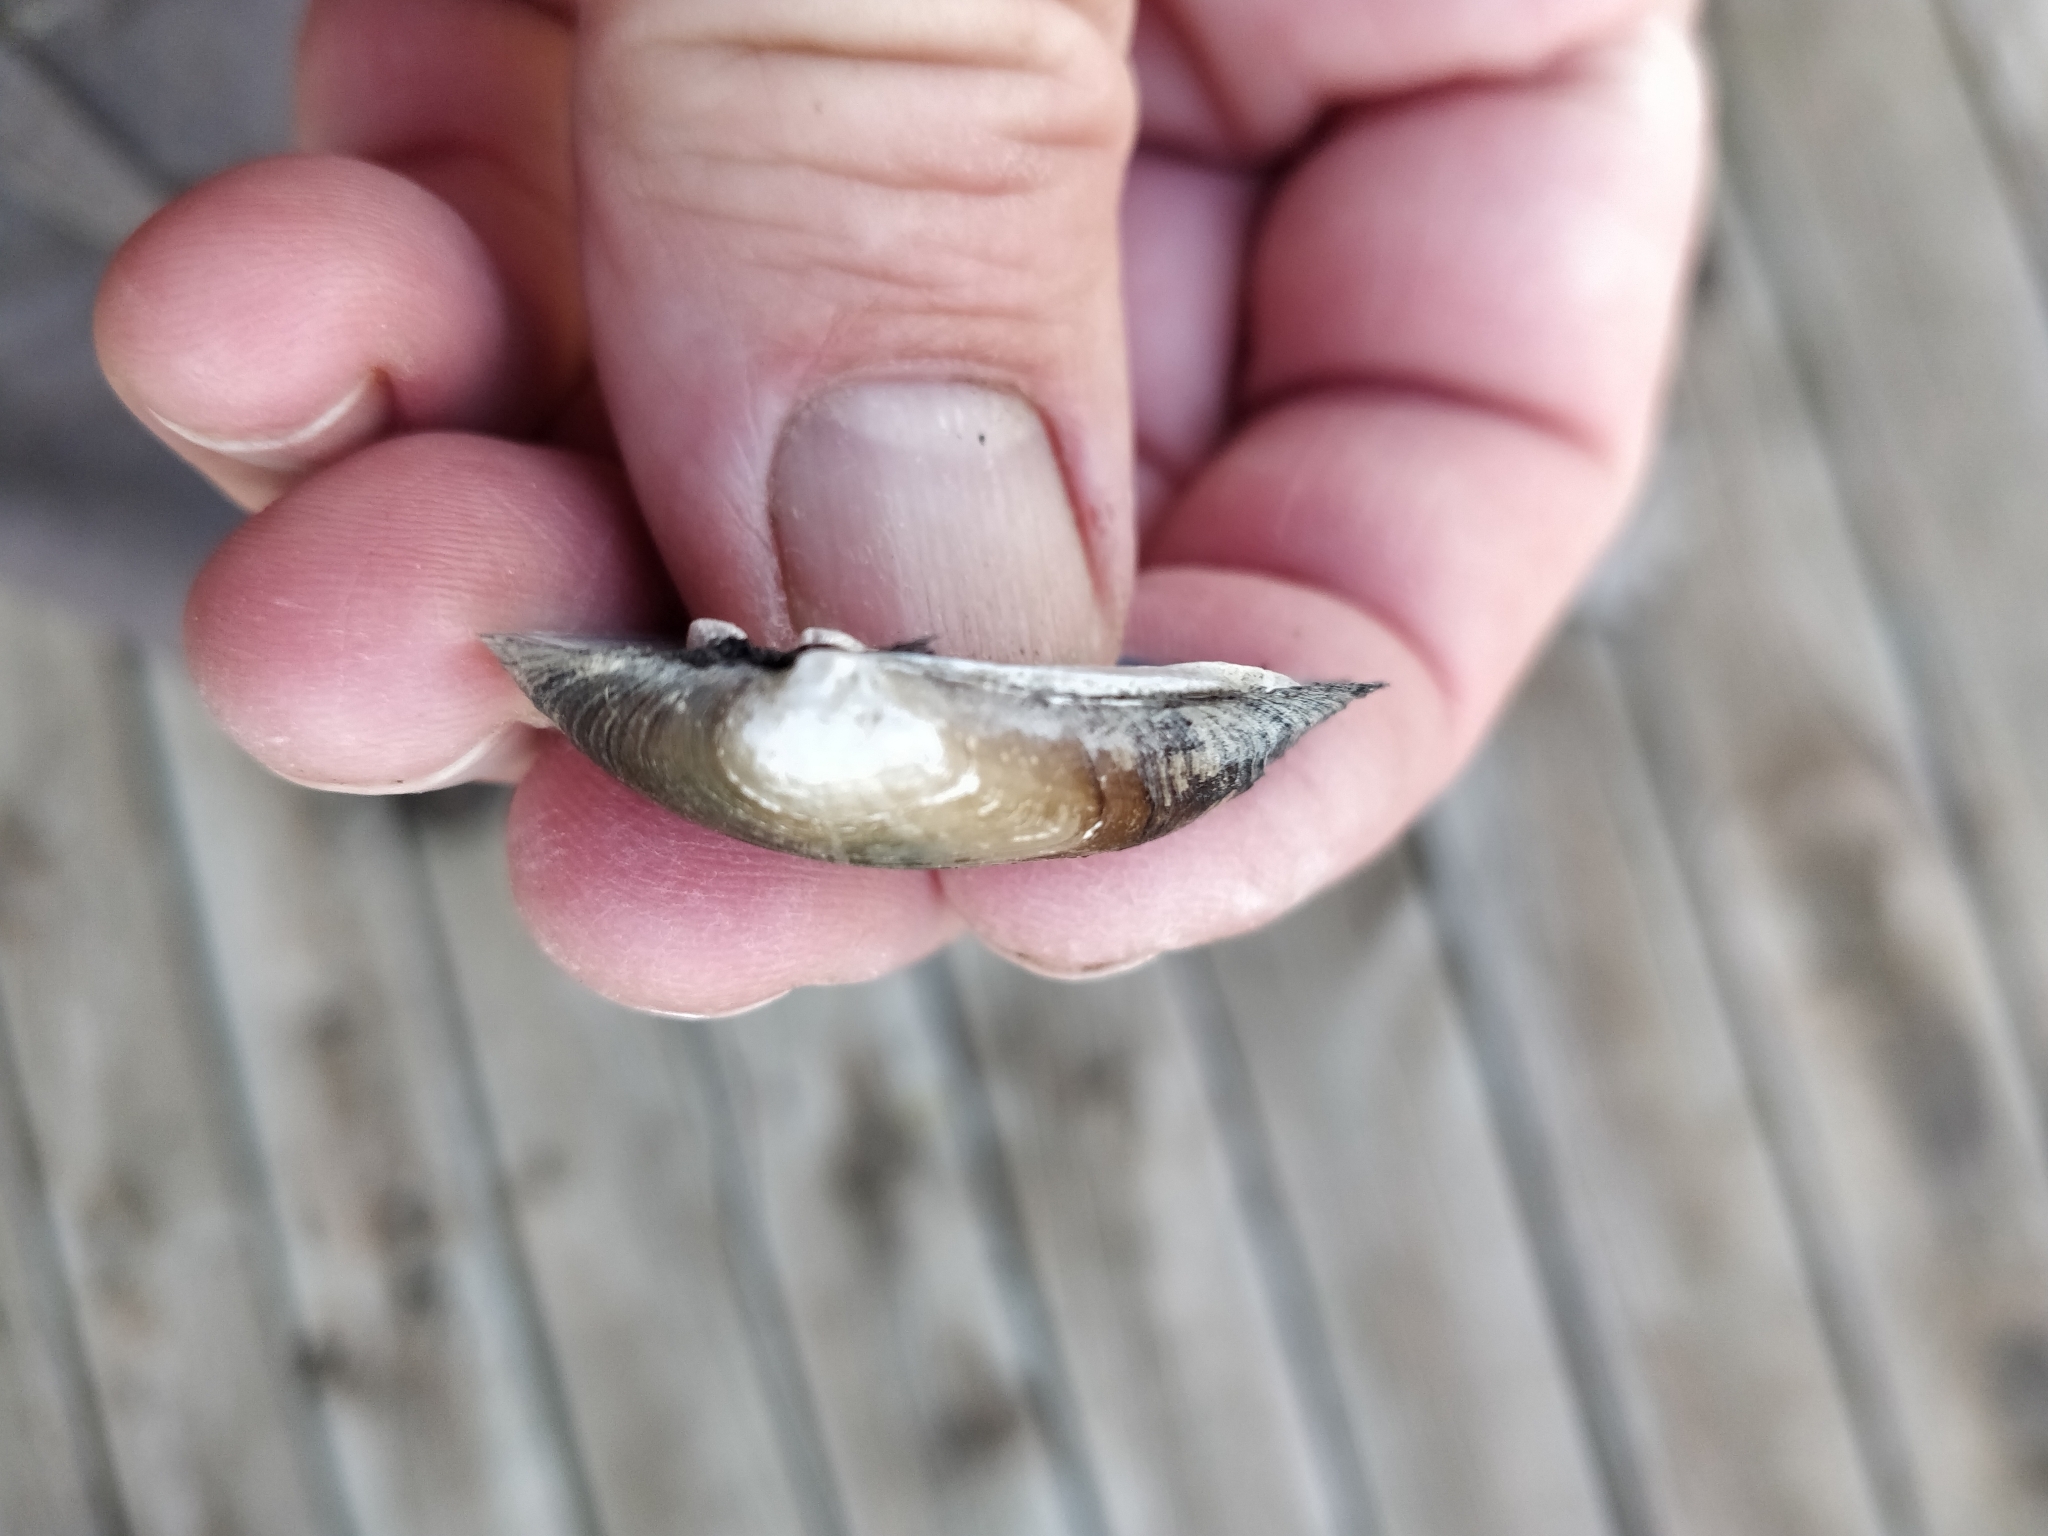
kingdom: Animalia
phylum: Mollusca
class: Bivalvia
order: Unionida
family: Unionidae
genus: Fusconaia
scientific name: Fusconaia flava
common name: Wabash pigtoe
